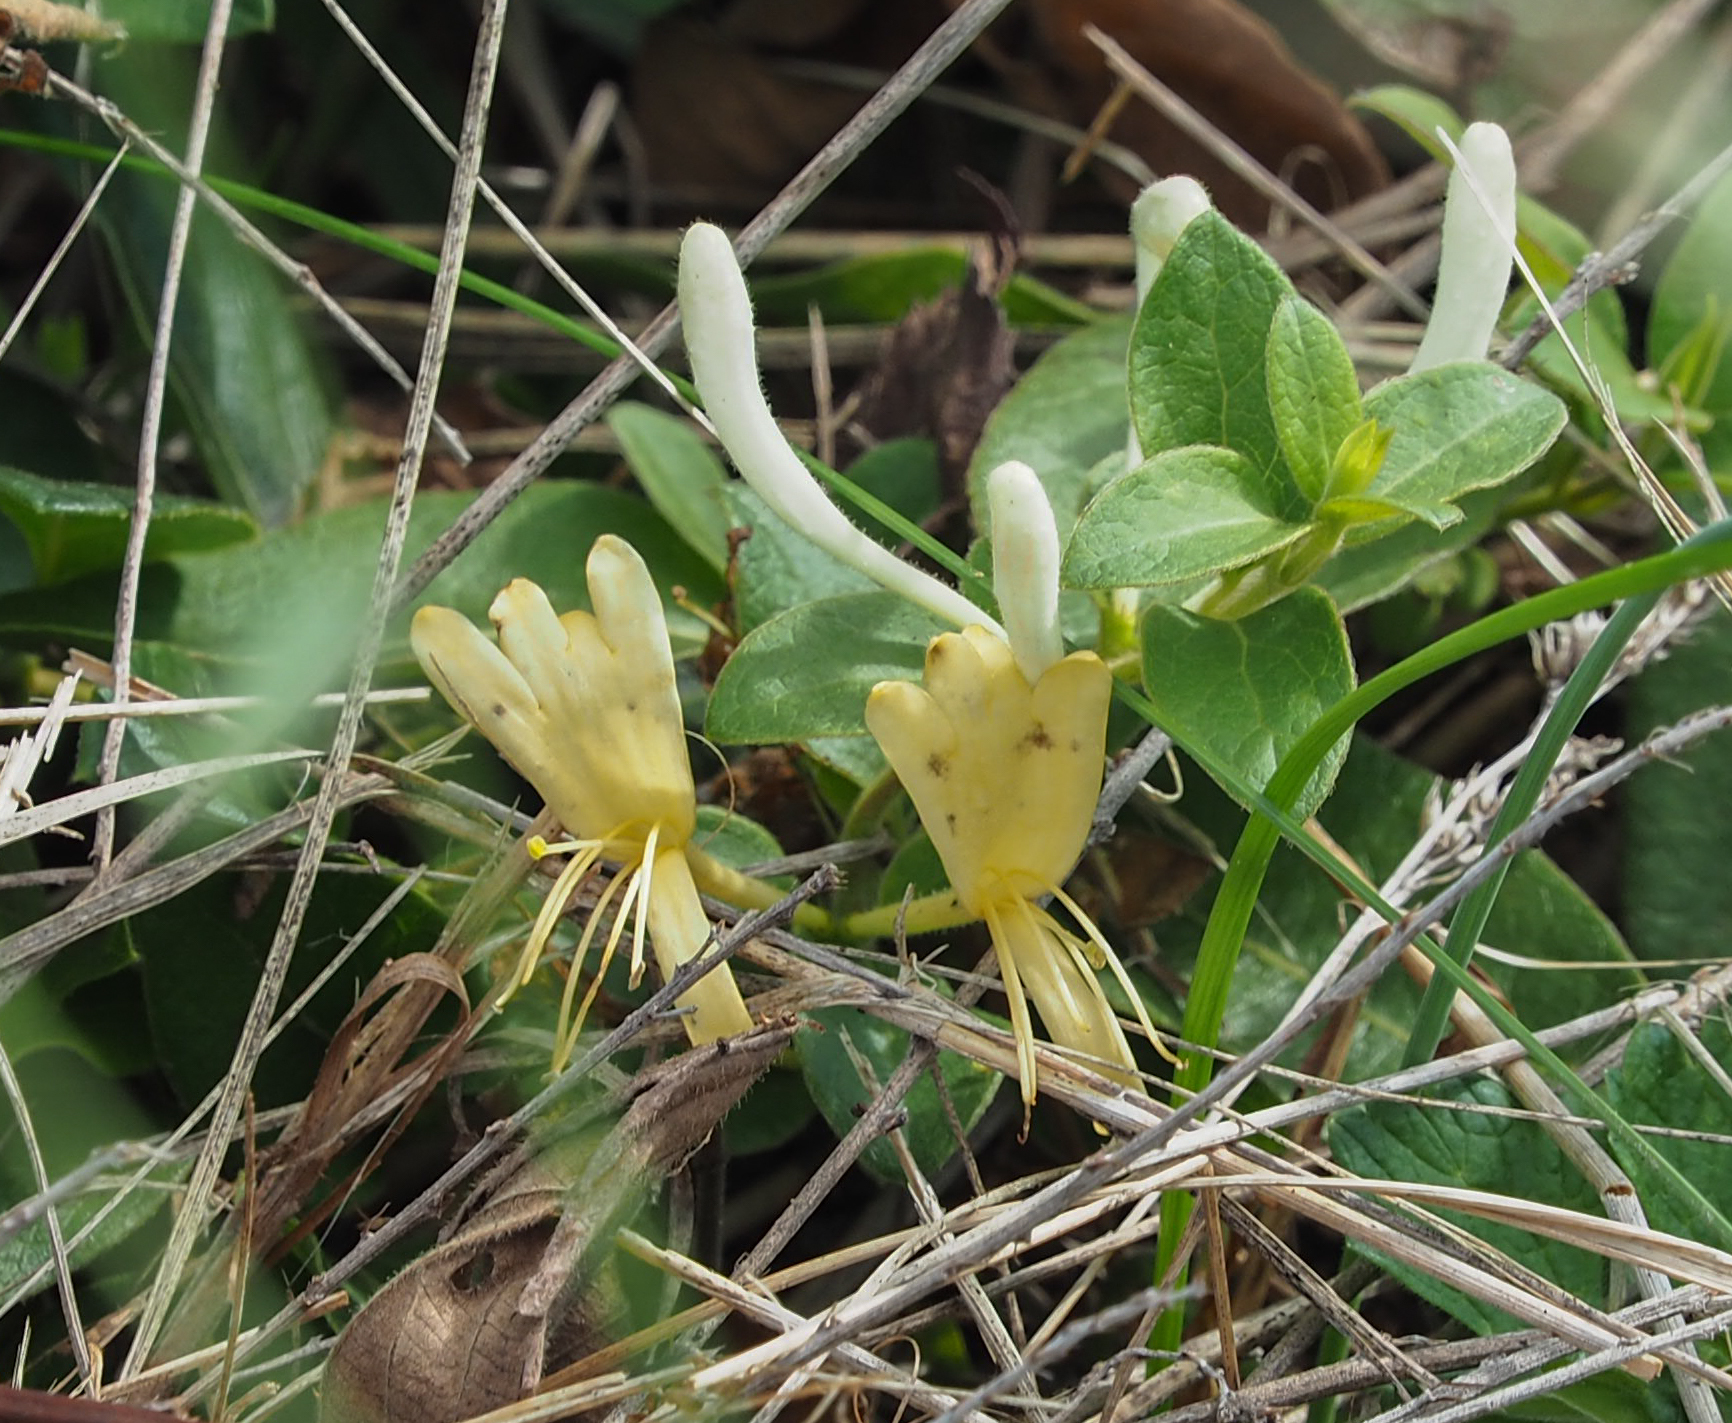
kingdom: Plantae
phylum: Tracheophyta
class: Magnoliopsida
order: Dipsacales
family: Caprifoliaceae
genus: Lonicera
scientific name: Lonicera japonica
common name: Japanese honeysuckle
